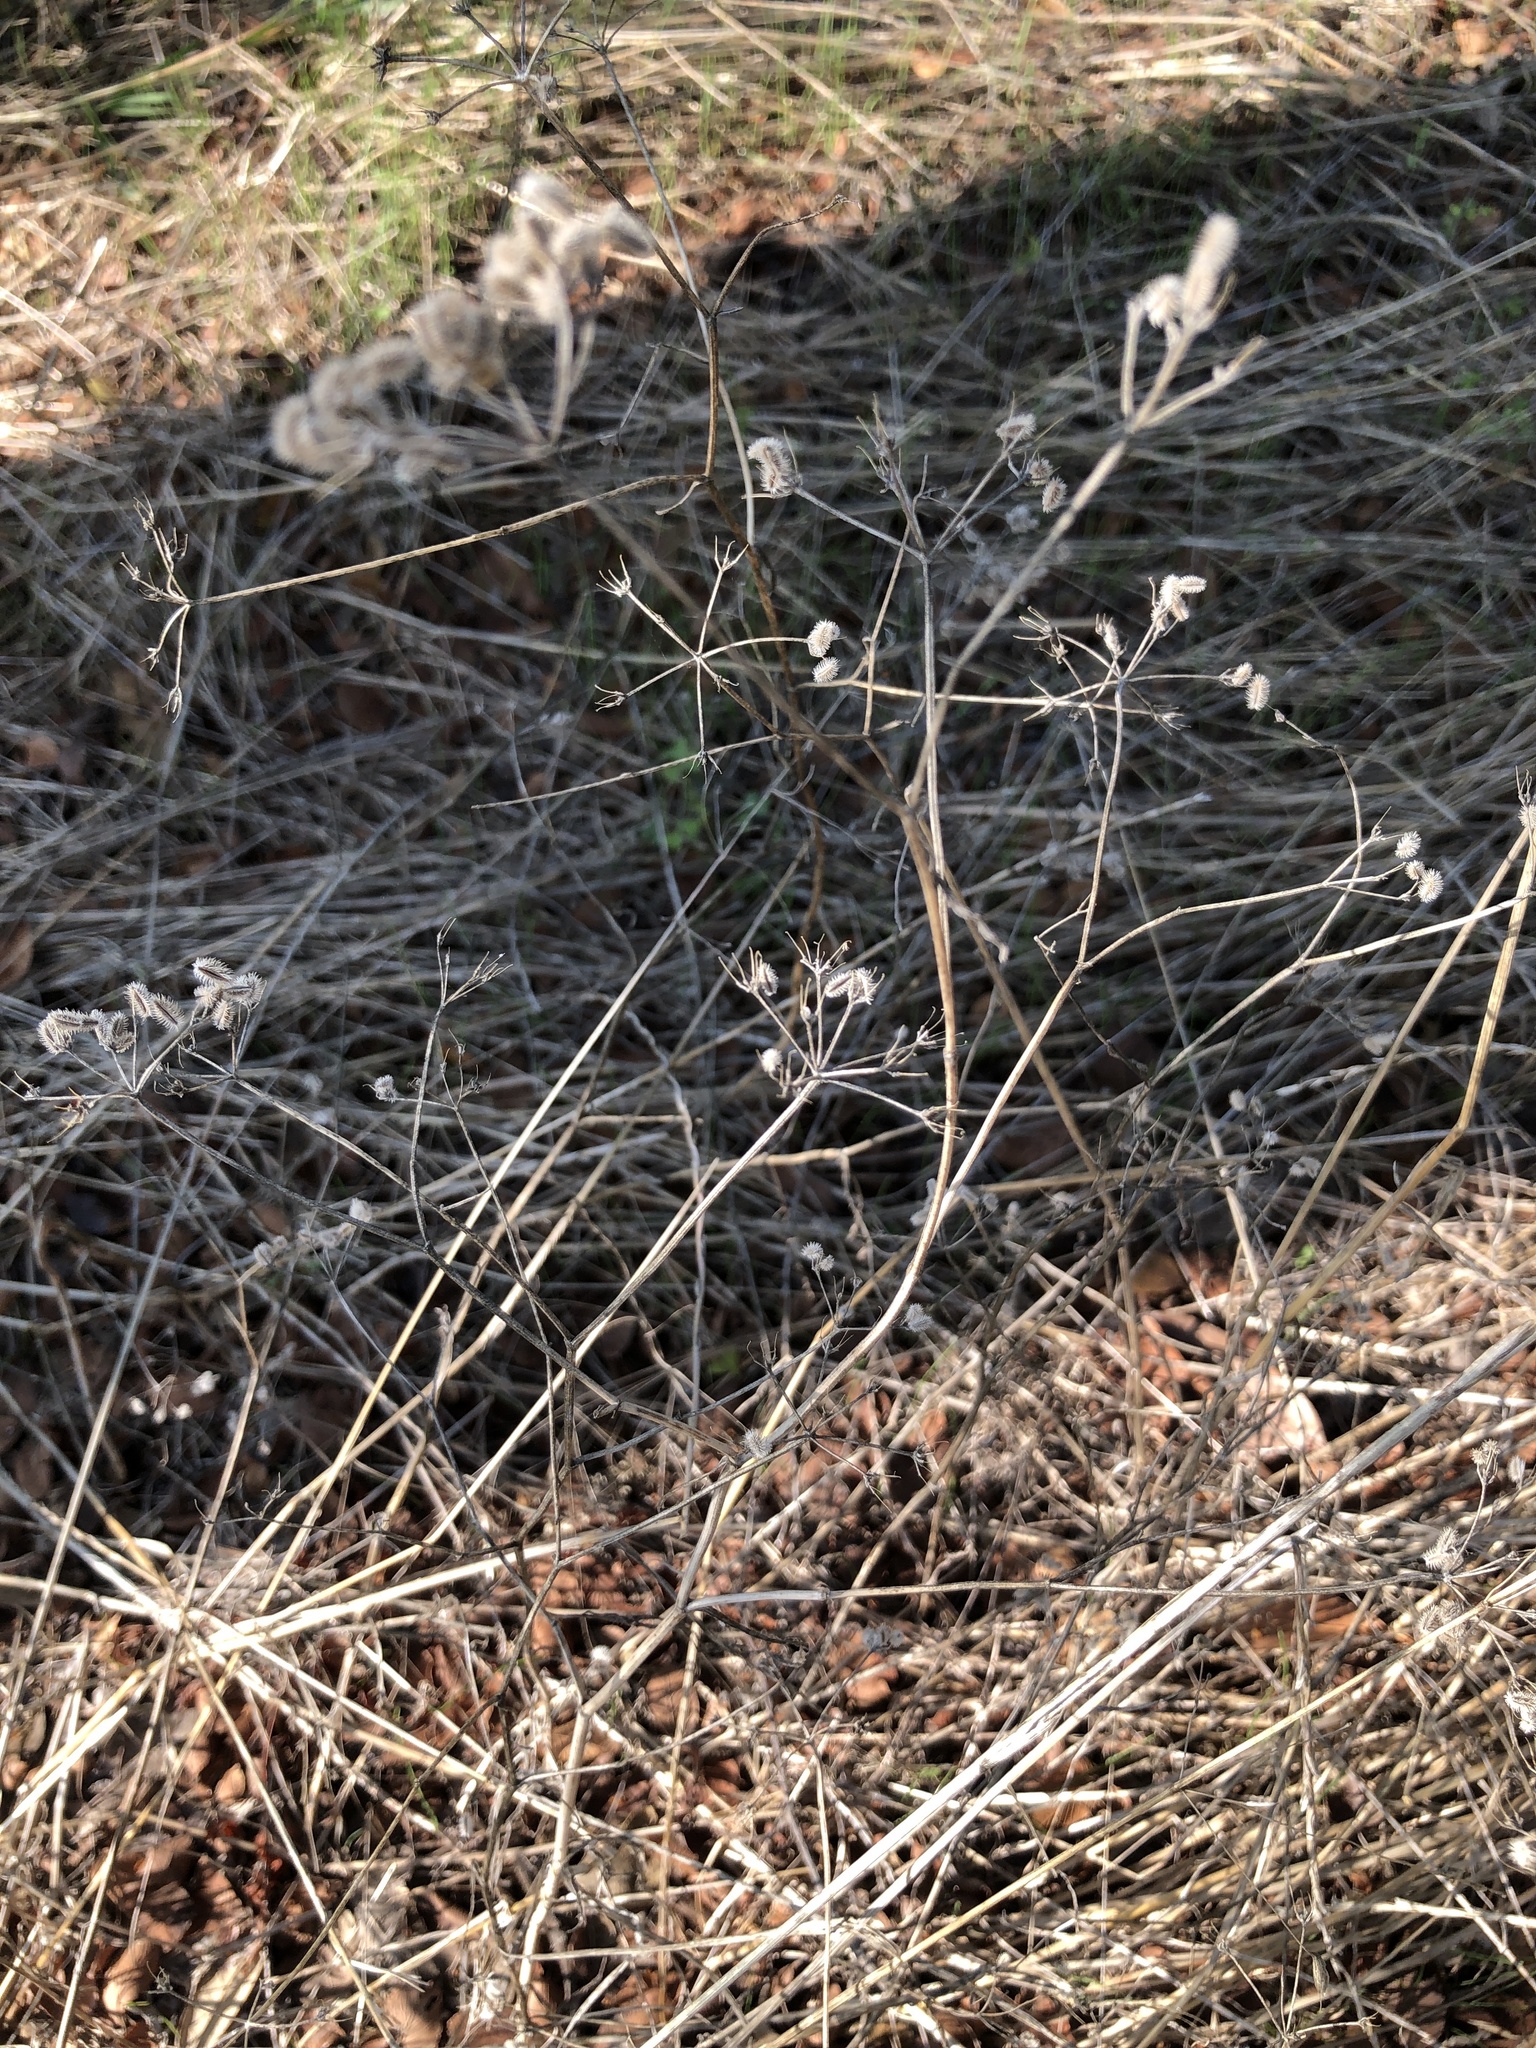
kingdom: Plantae
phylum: Tracheophyta
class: Magnoliopsida
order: Apiales
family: Apiaceae
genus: Torilis
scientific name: Torilis arvensis
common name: Spreading hedge-parsley
